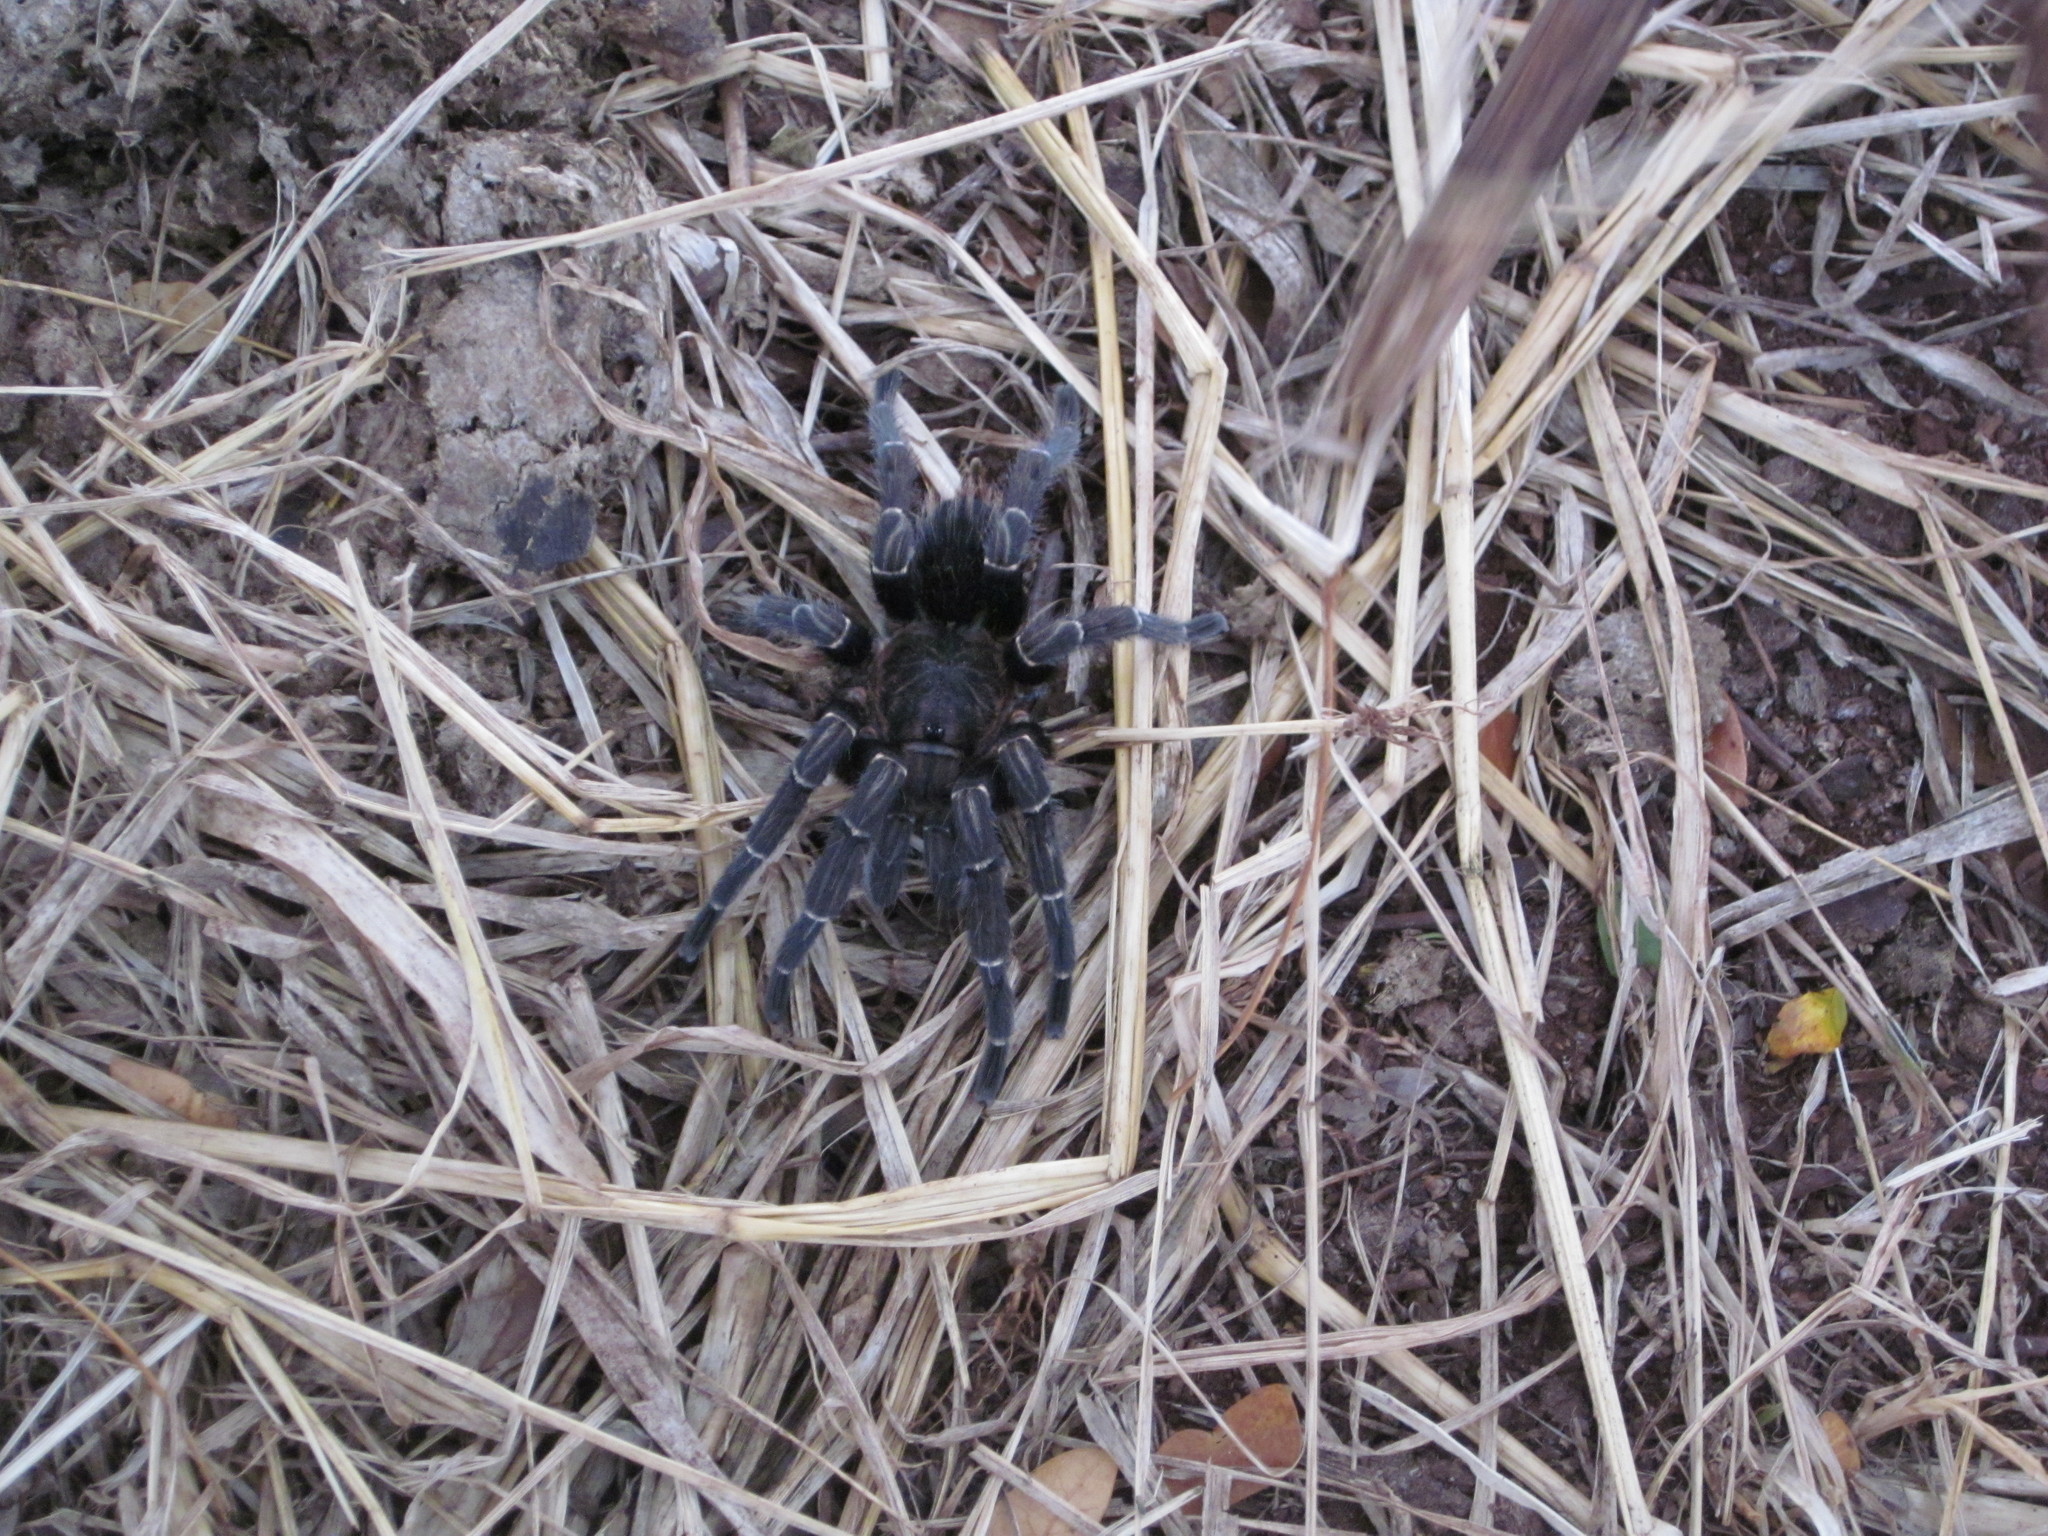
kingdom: Animalia
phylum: Arthropoda
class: Arachnida
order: Araneae
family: Theraphosidae
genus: Aphonopelma
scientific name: Aphonopelma seemanni
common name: Tarantula spiders
